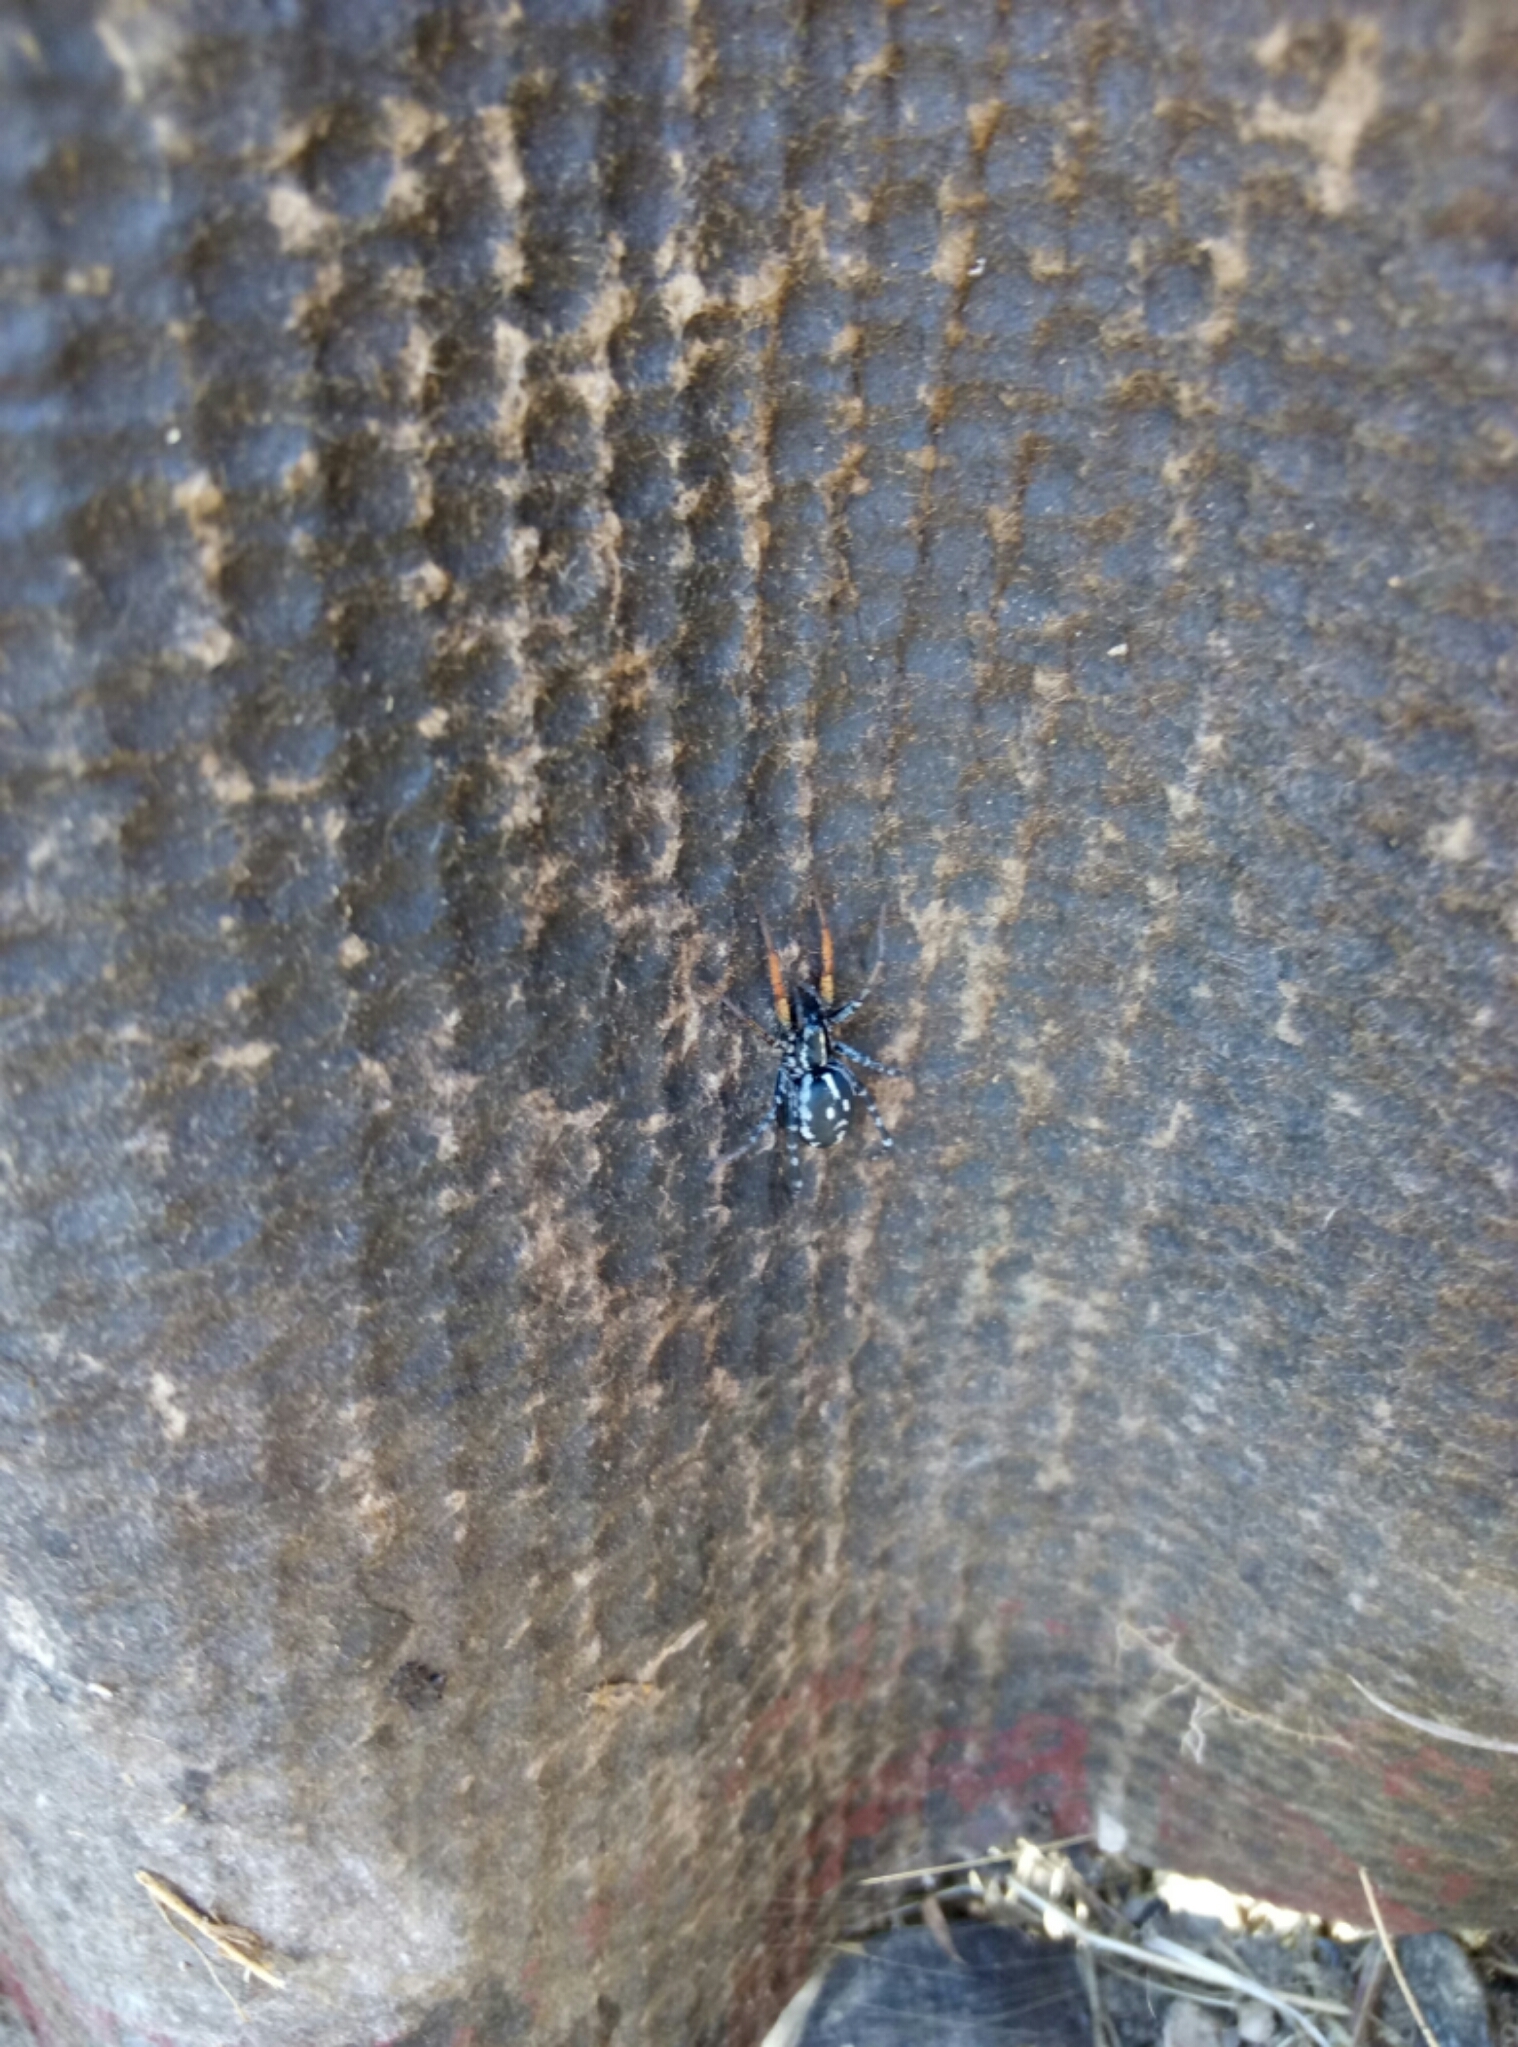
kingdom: Animalia
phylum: Arthropoda
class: Arachnida
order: Araneae
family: Corinnidae
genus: Nyssus
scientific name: Nyssus coloripes
